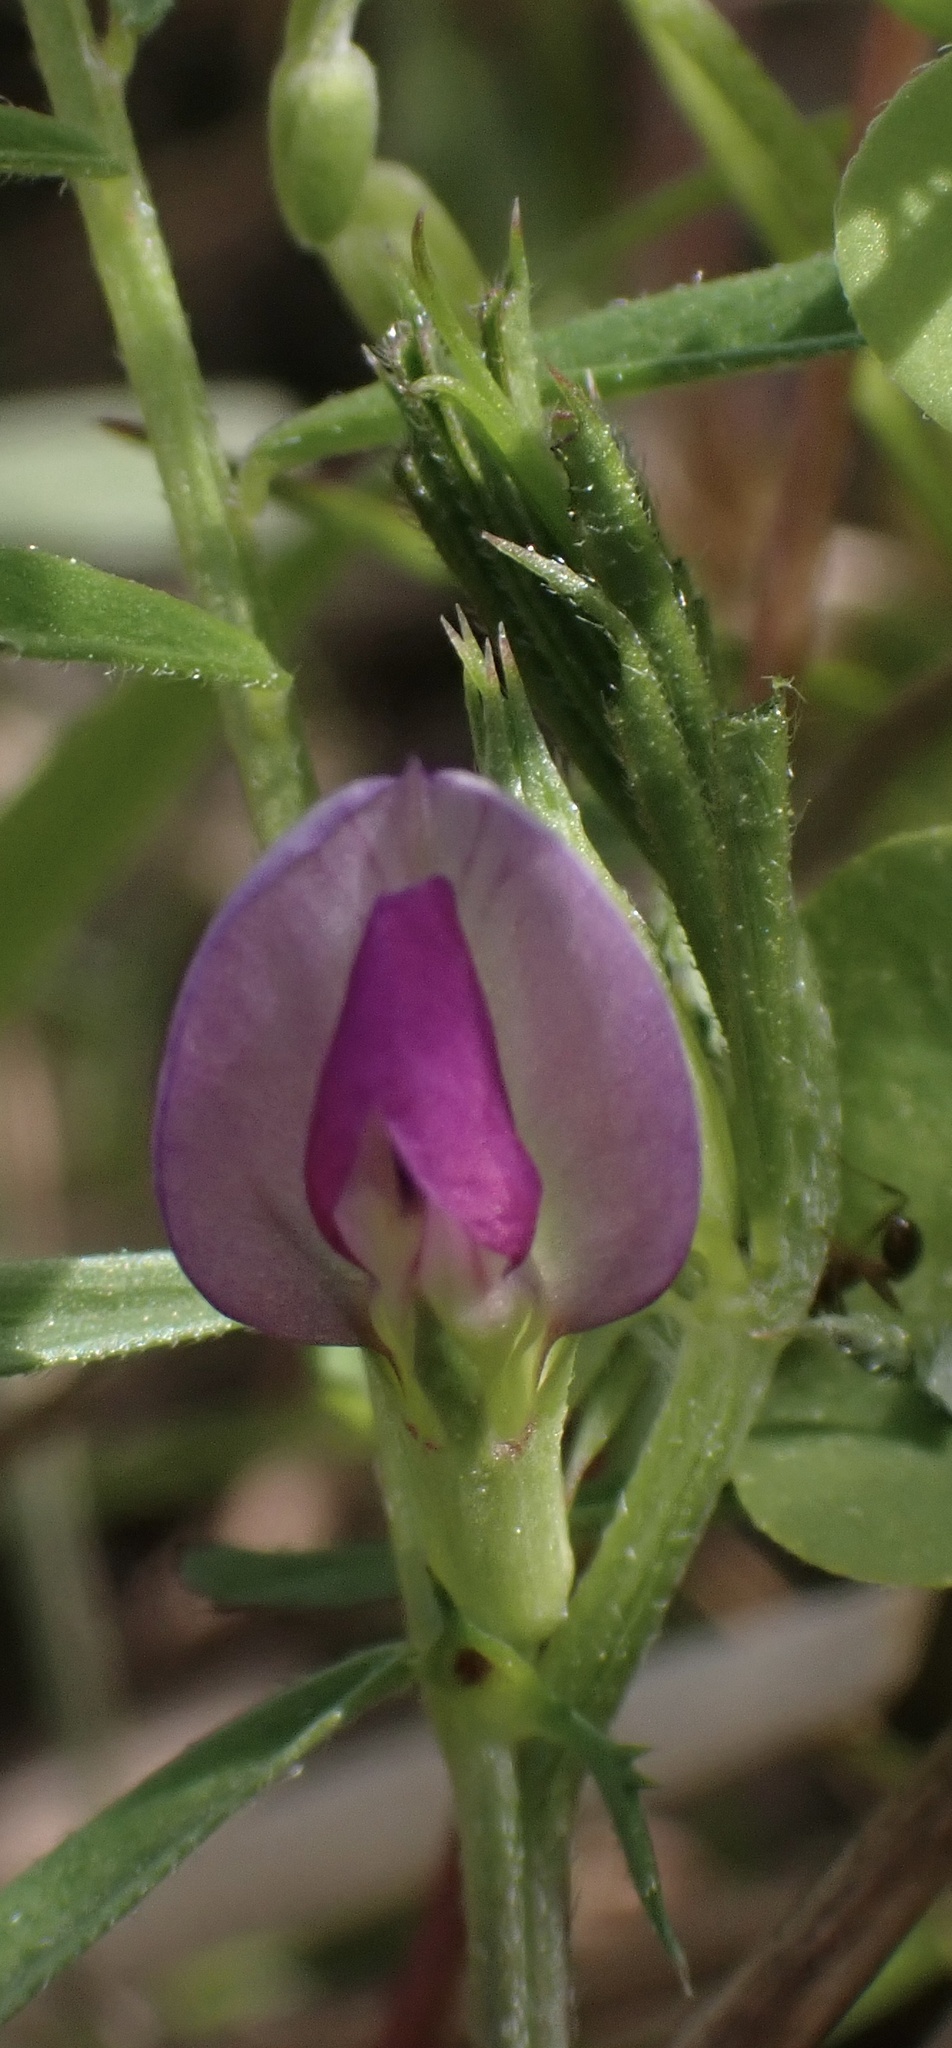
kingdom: Plantae
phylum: Tracheophyta
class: Magnoliopsida
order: Fabales
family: Fabaceae
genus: Vicia
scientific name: Vicia sativa
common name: Garden vetch
